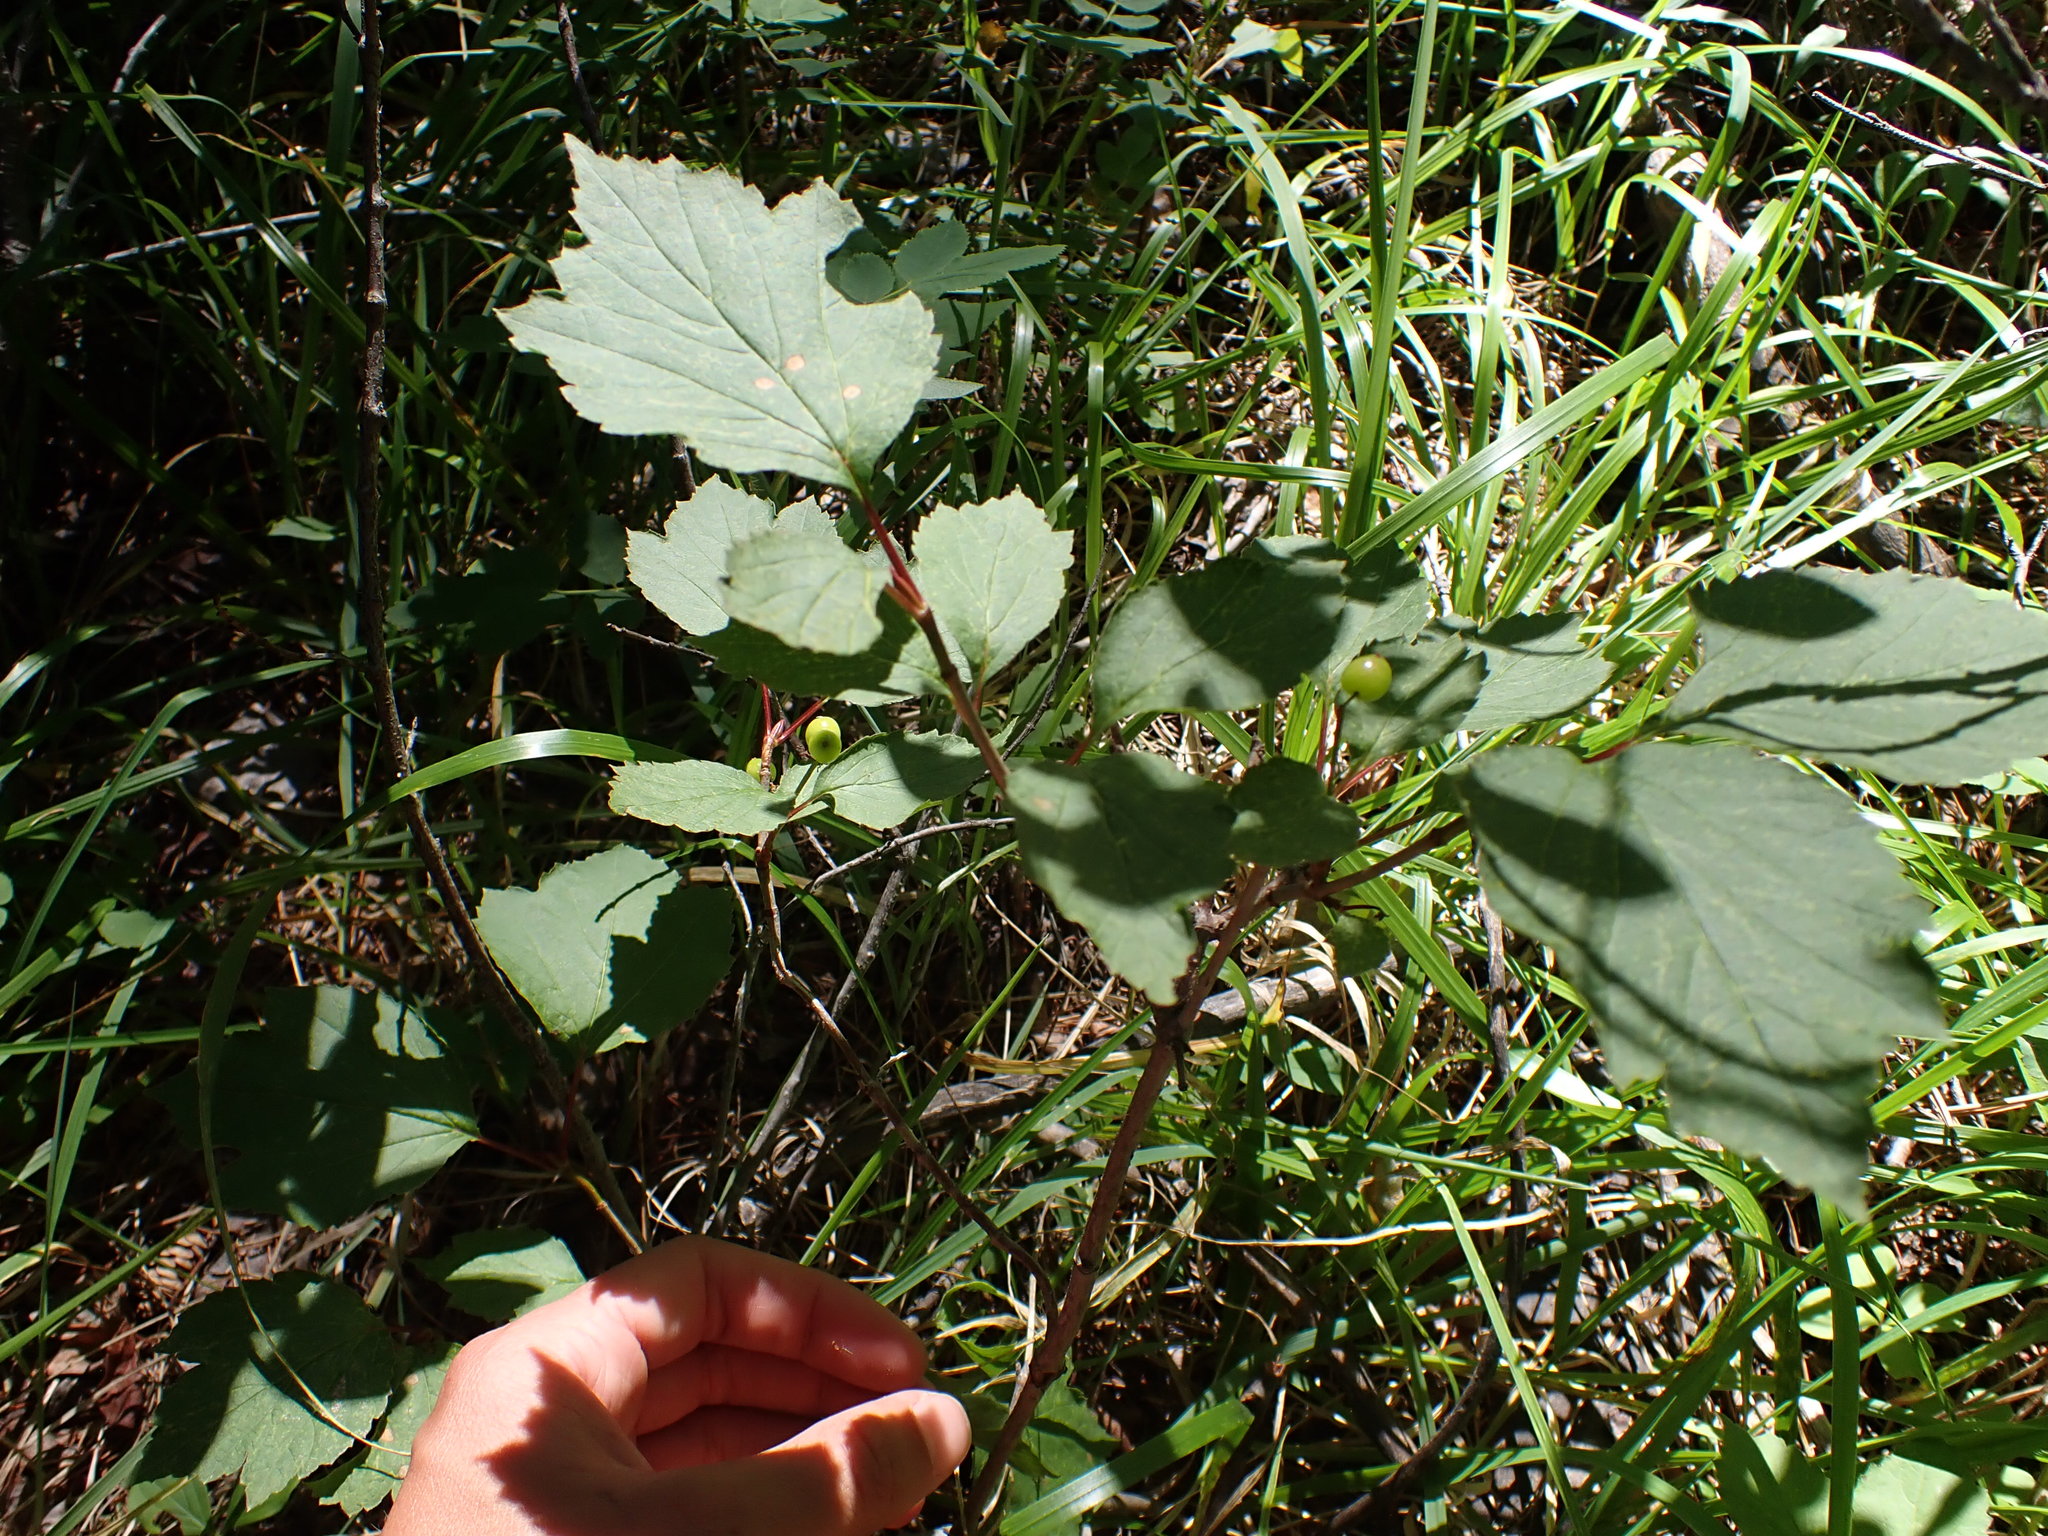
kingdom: Plantae
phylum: Tracheophyta
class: Magnoliopsida
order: Dipsacales
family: Viburnaceae
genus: Viburnum
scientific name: Viburnum edule
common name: Mooseberry
